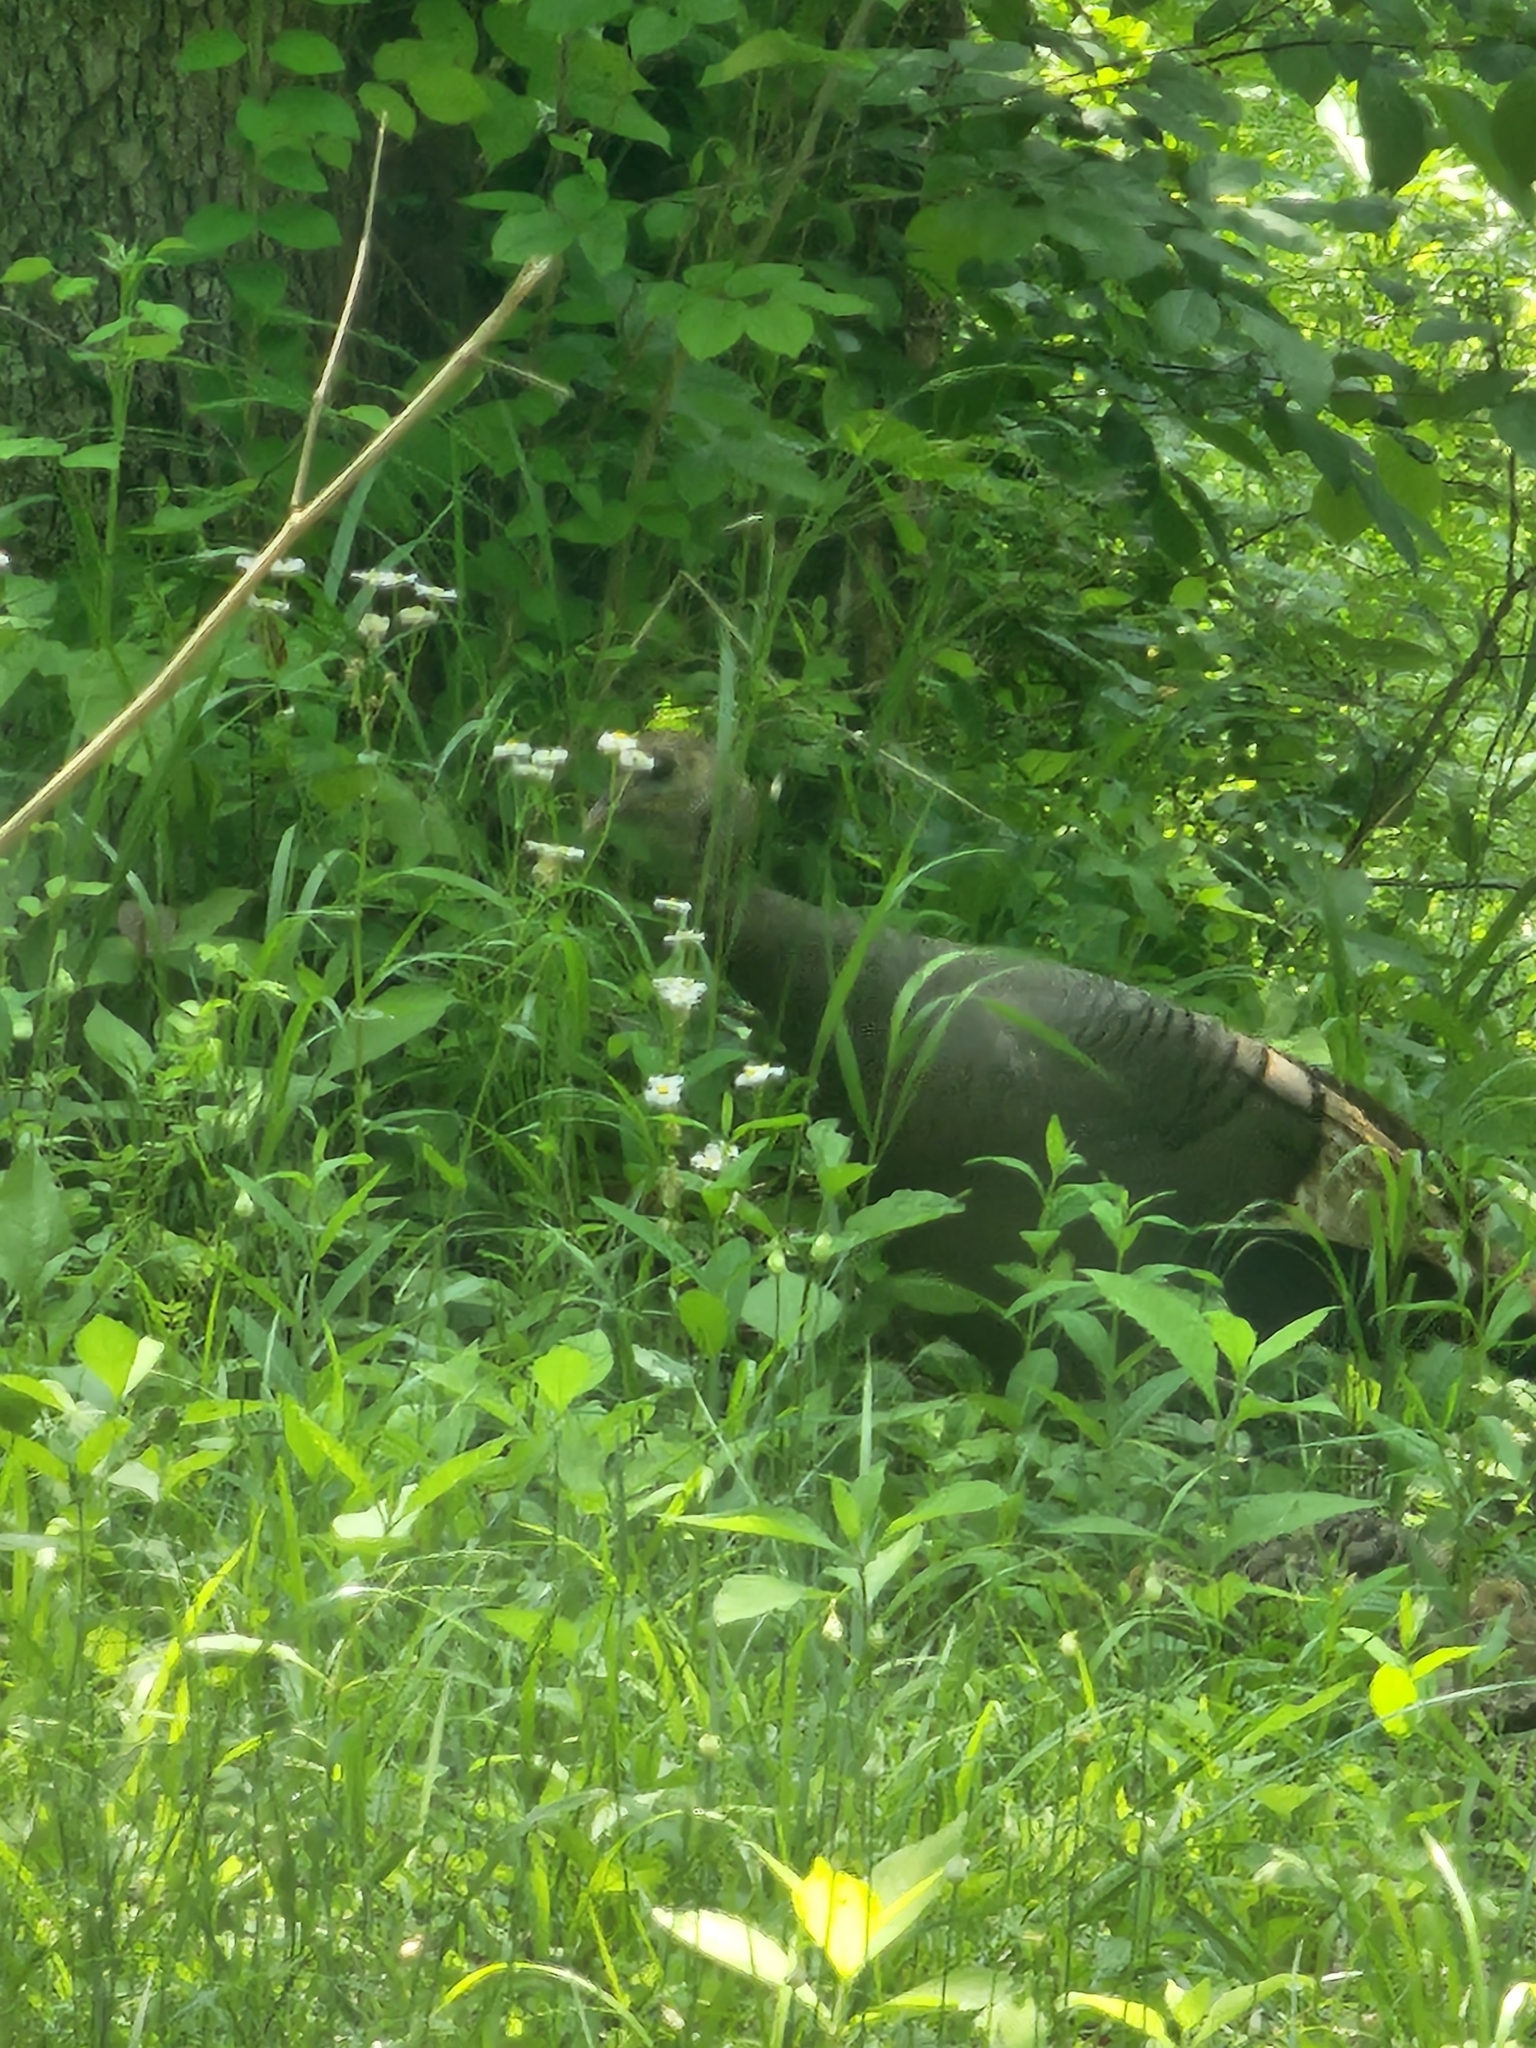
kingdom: Animalia
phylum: Chordata
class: Aves
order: Galliformes
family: Phasianidae
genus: Meleagris
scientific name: Meleagris gallopavo
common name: Wild turkey
